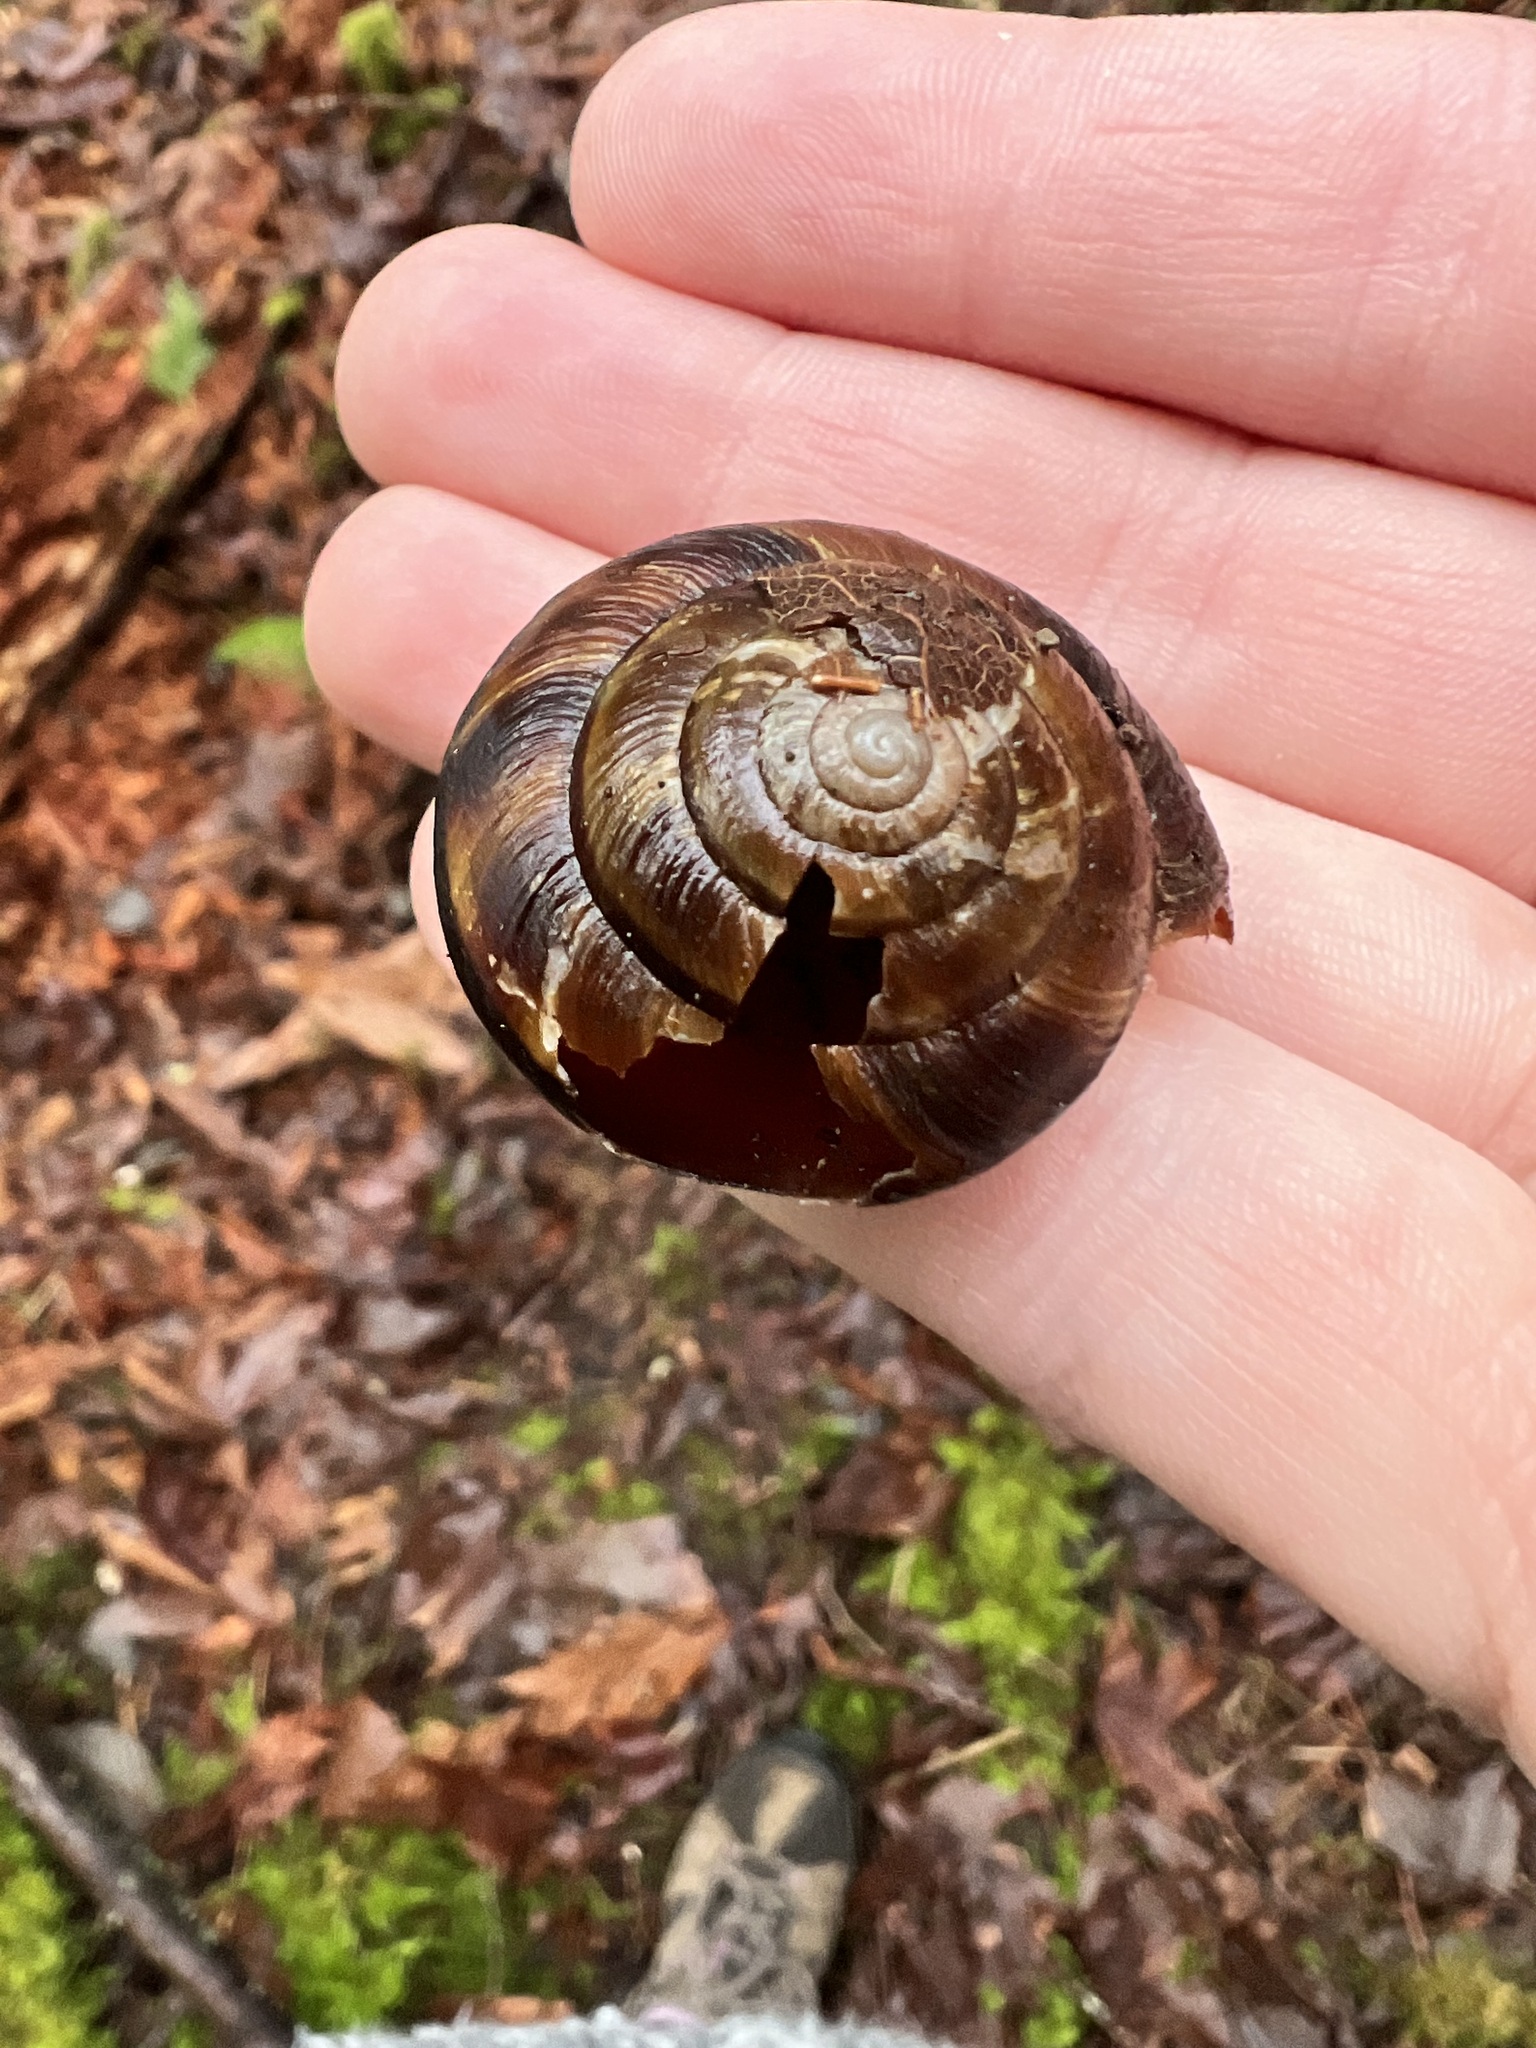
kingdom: Animalia
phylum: Mollusca
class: Gastropoda
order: Stylommatophora
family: Xanthonychidae
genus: Monadenia
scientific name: Monadenia fidelis
